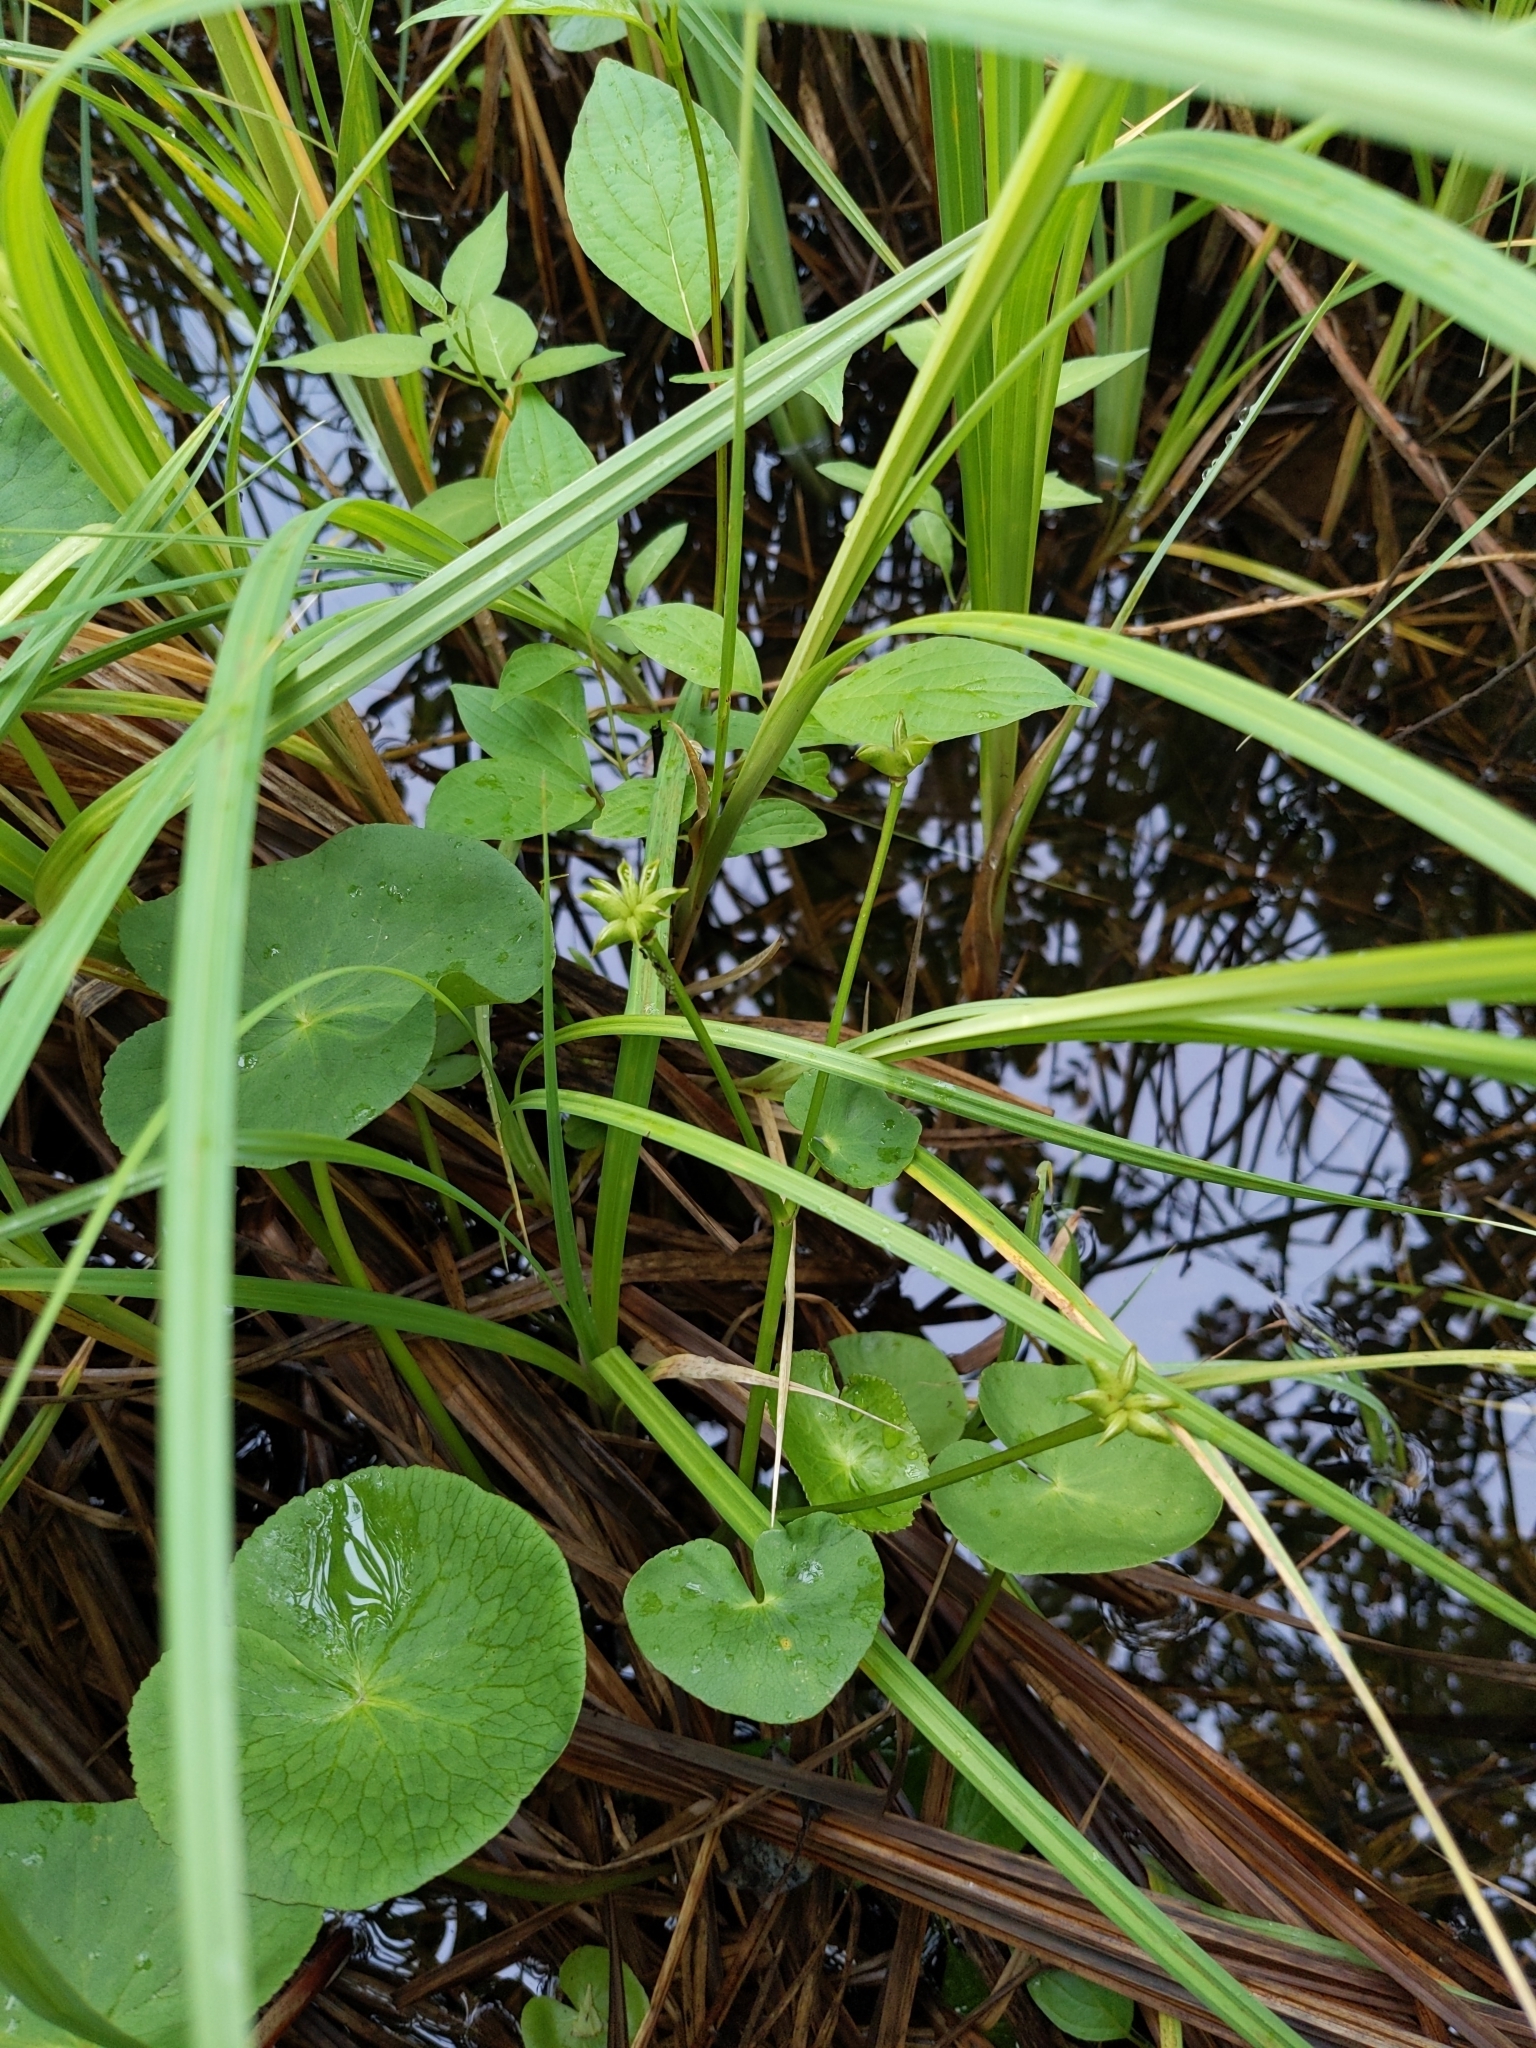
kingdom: Plantae
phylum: Tracheophyta
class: Magnoliopsida
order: Ranunculales
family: Ranunculaceae
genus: Caltha
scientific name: Caltha palustris
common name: Marsh marigold
